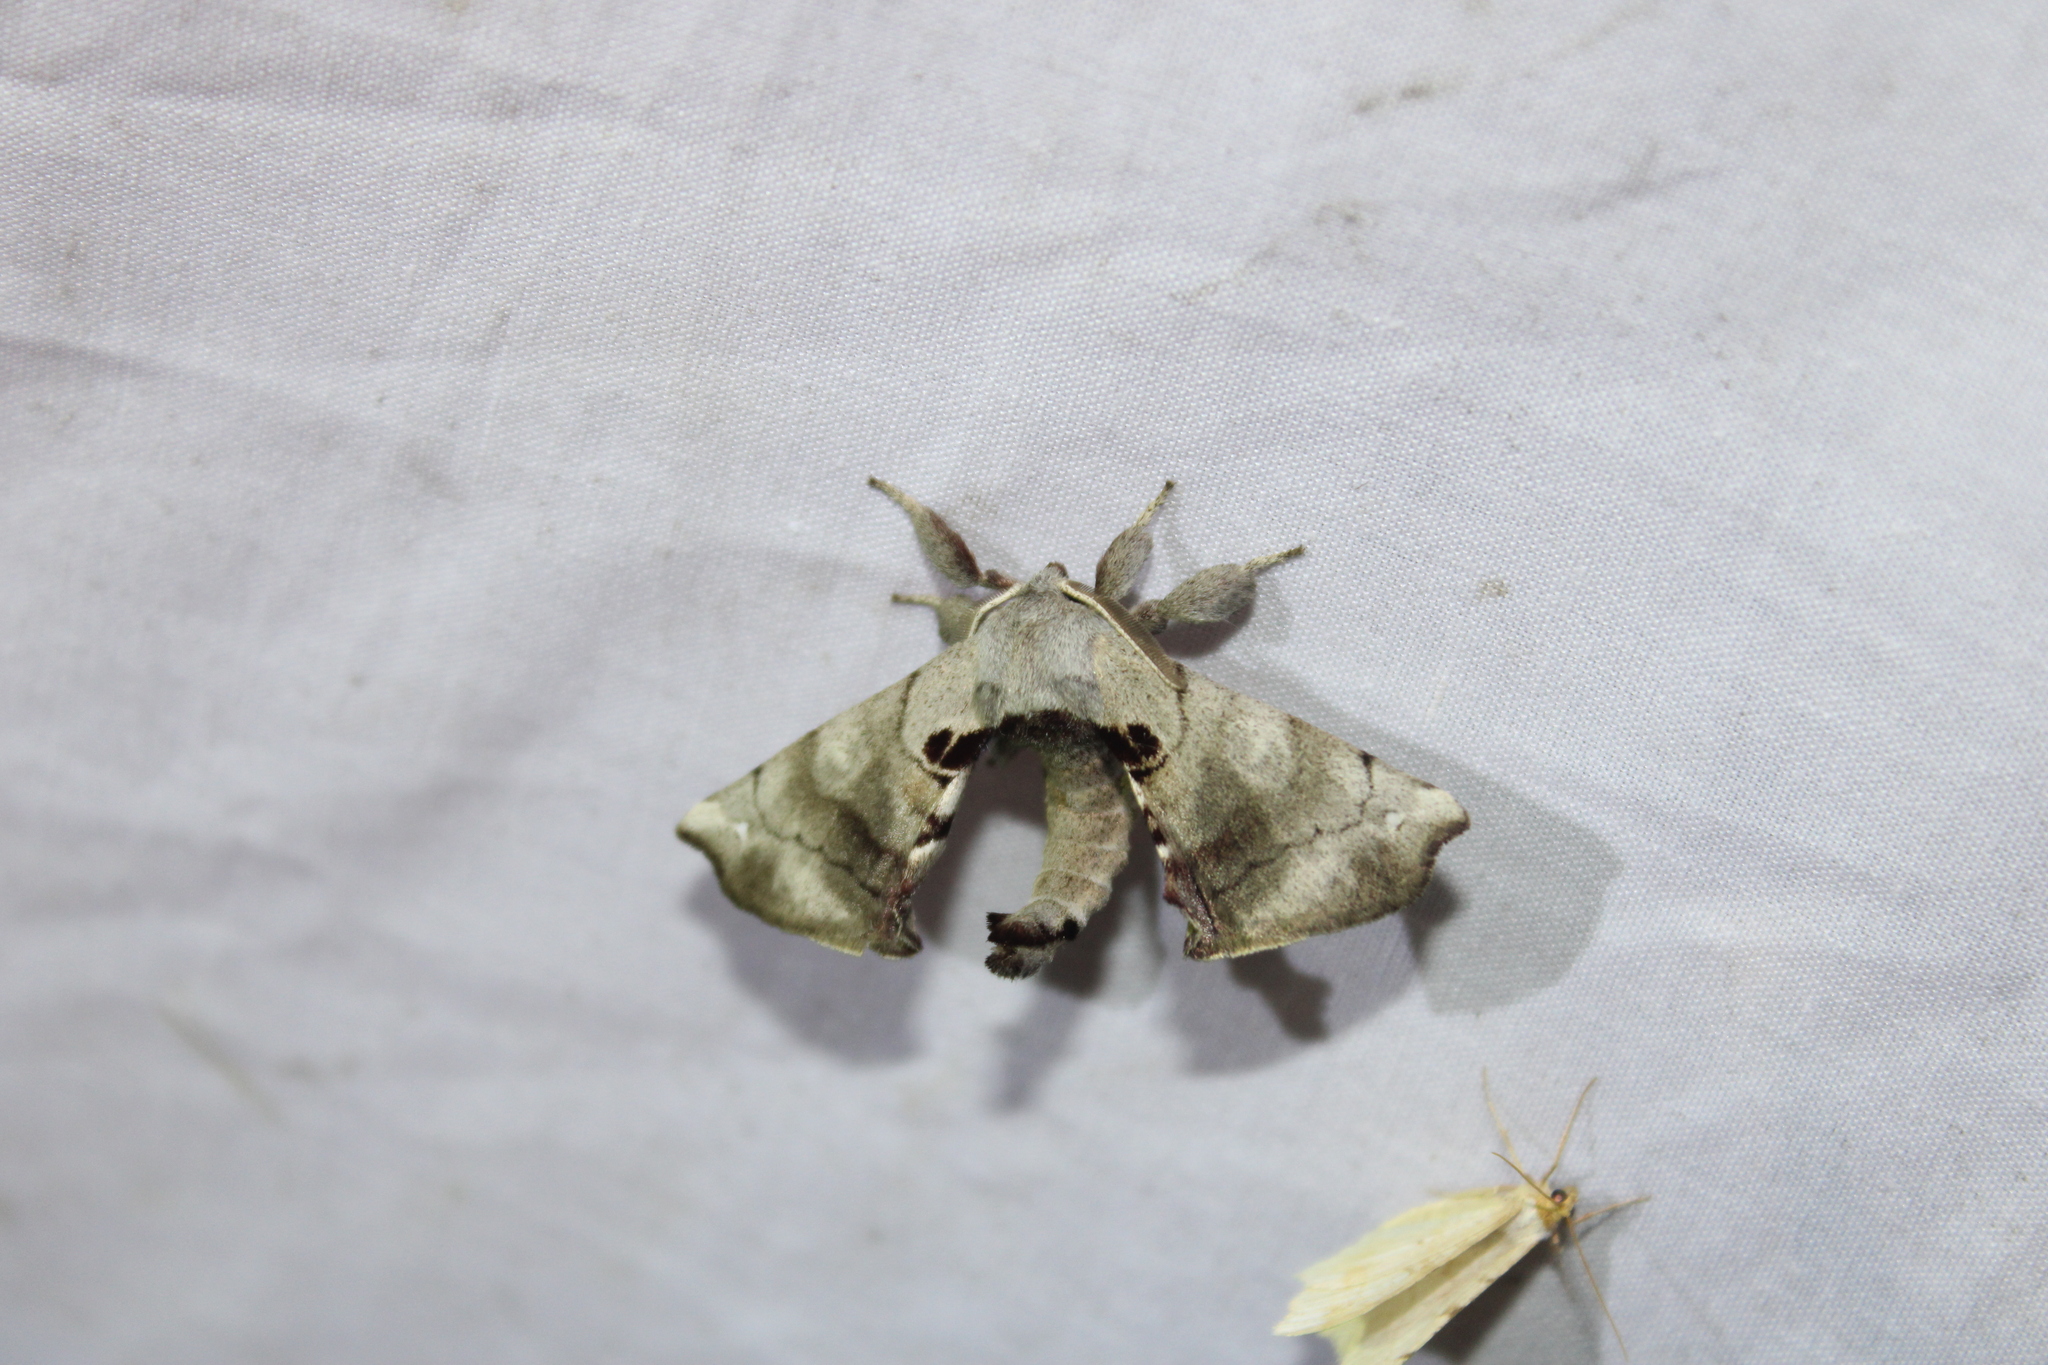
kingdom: Animalia
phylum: Arthropoda
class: Insecta
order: Lepidoptera
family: Apatelodidae
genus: Hygrochroa
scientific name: Hygrochroa Apatelodes torrefacta
